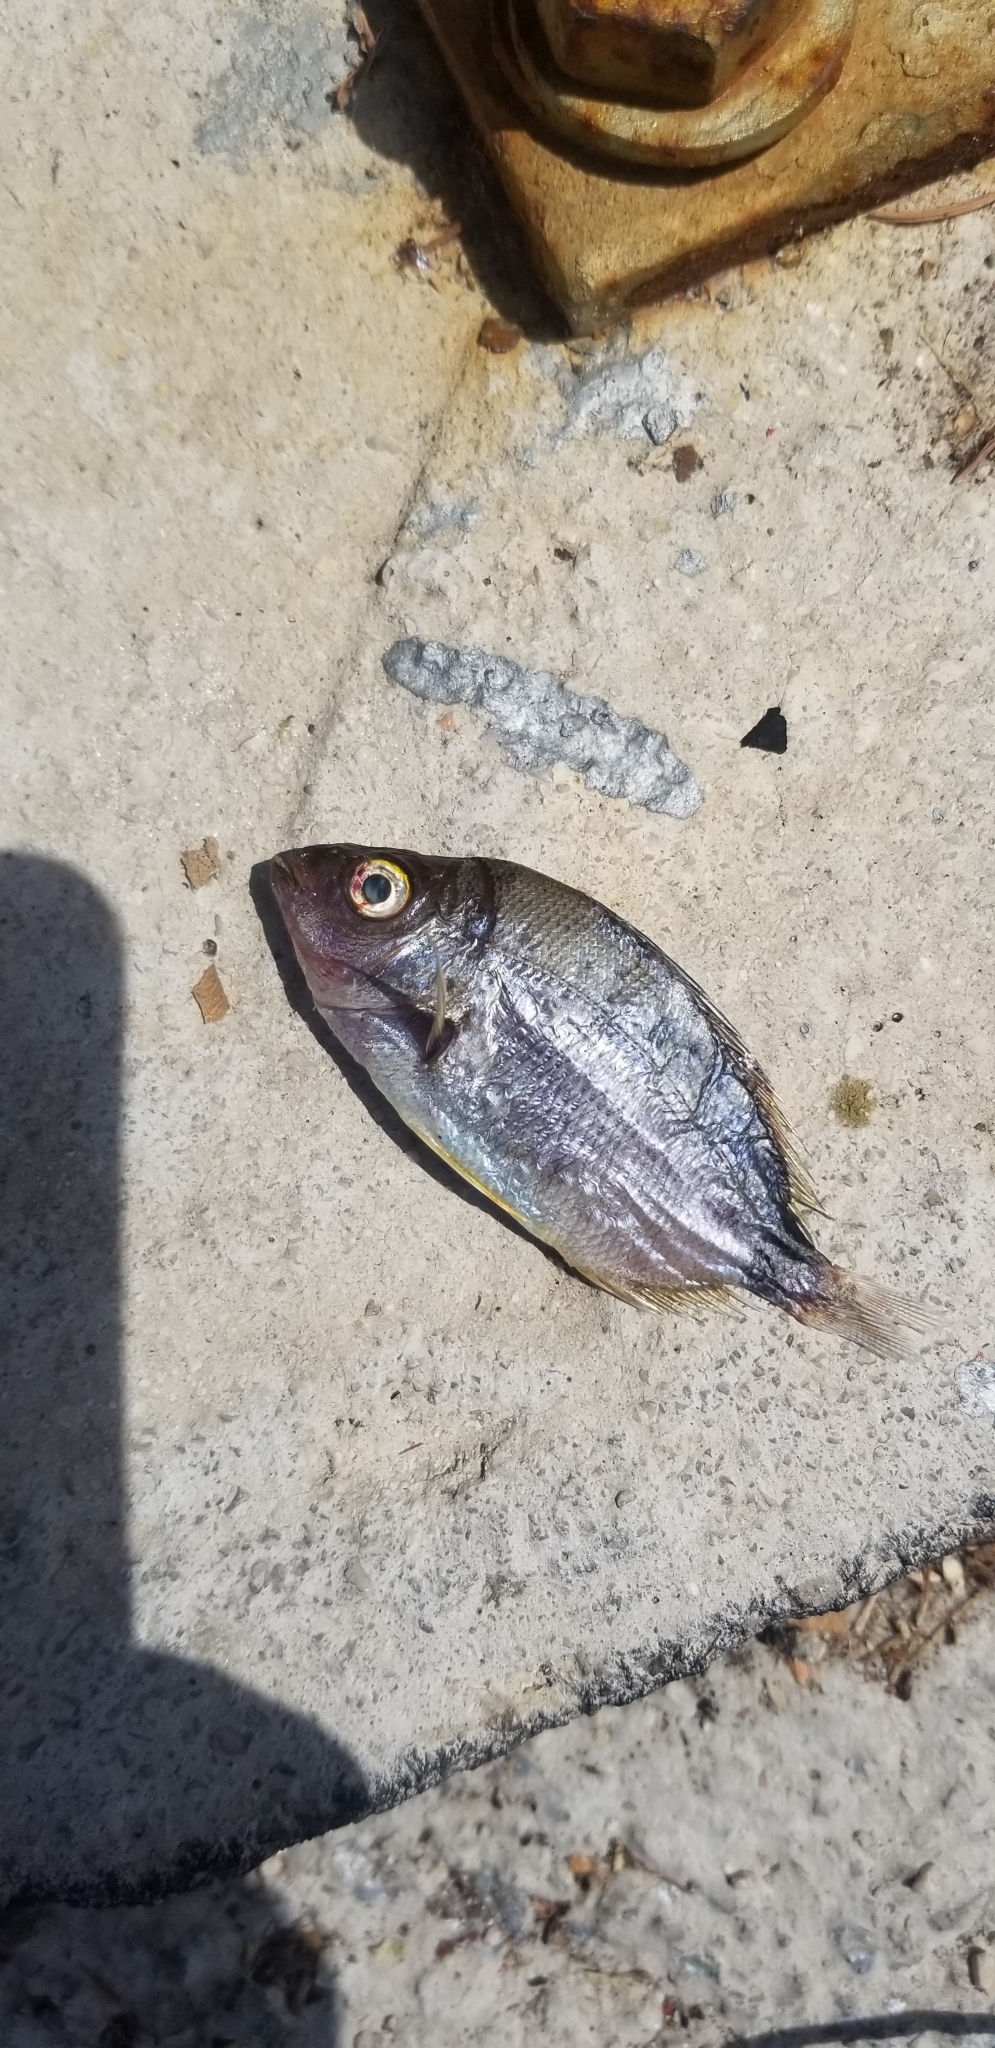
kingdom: Animalia
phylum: Chordata
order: Perciformes
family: Sparidae
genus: Diplodus
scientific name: Diplodus annularis
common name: Annular seabream
